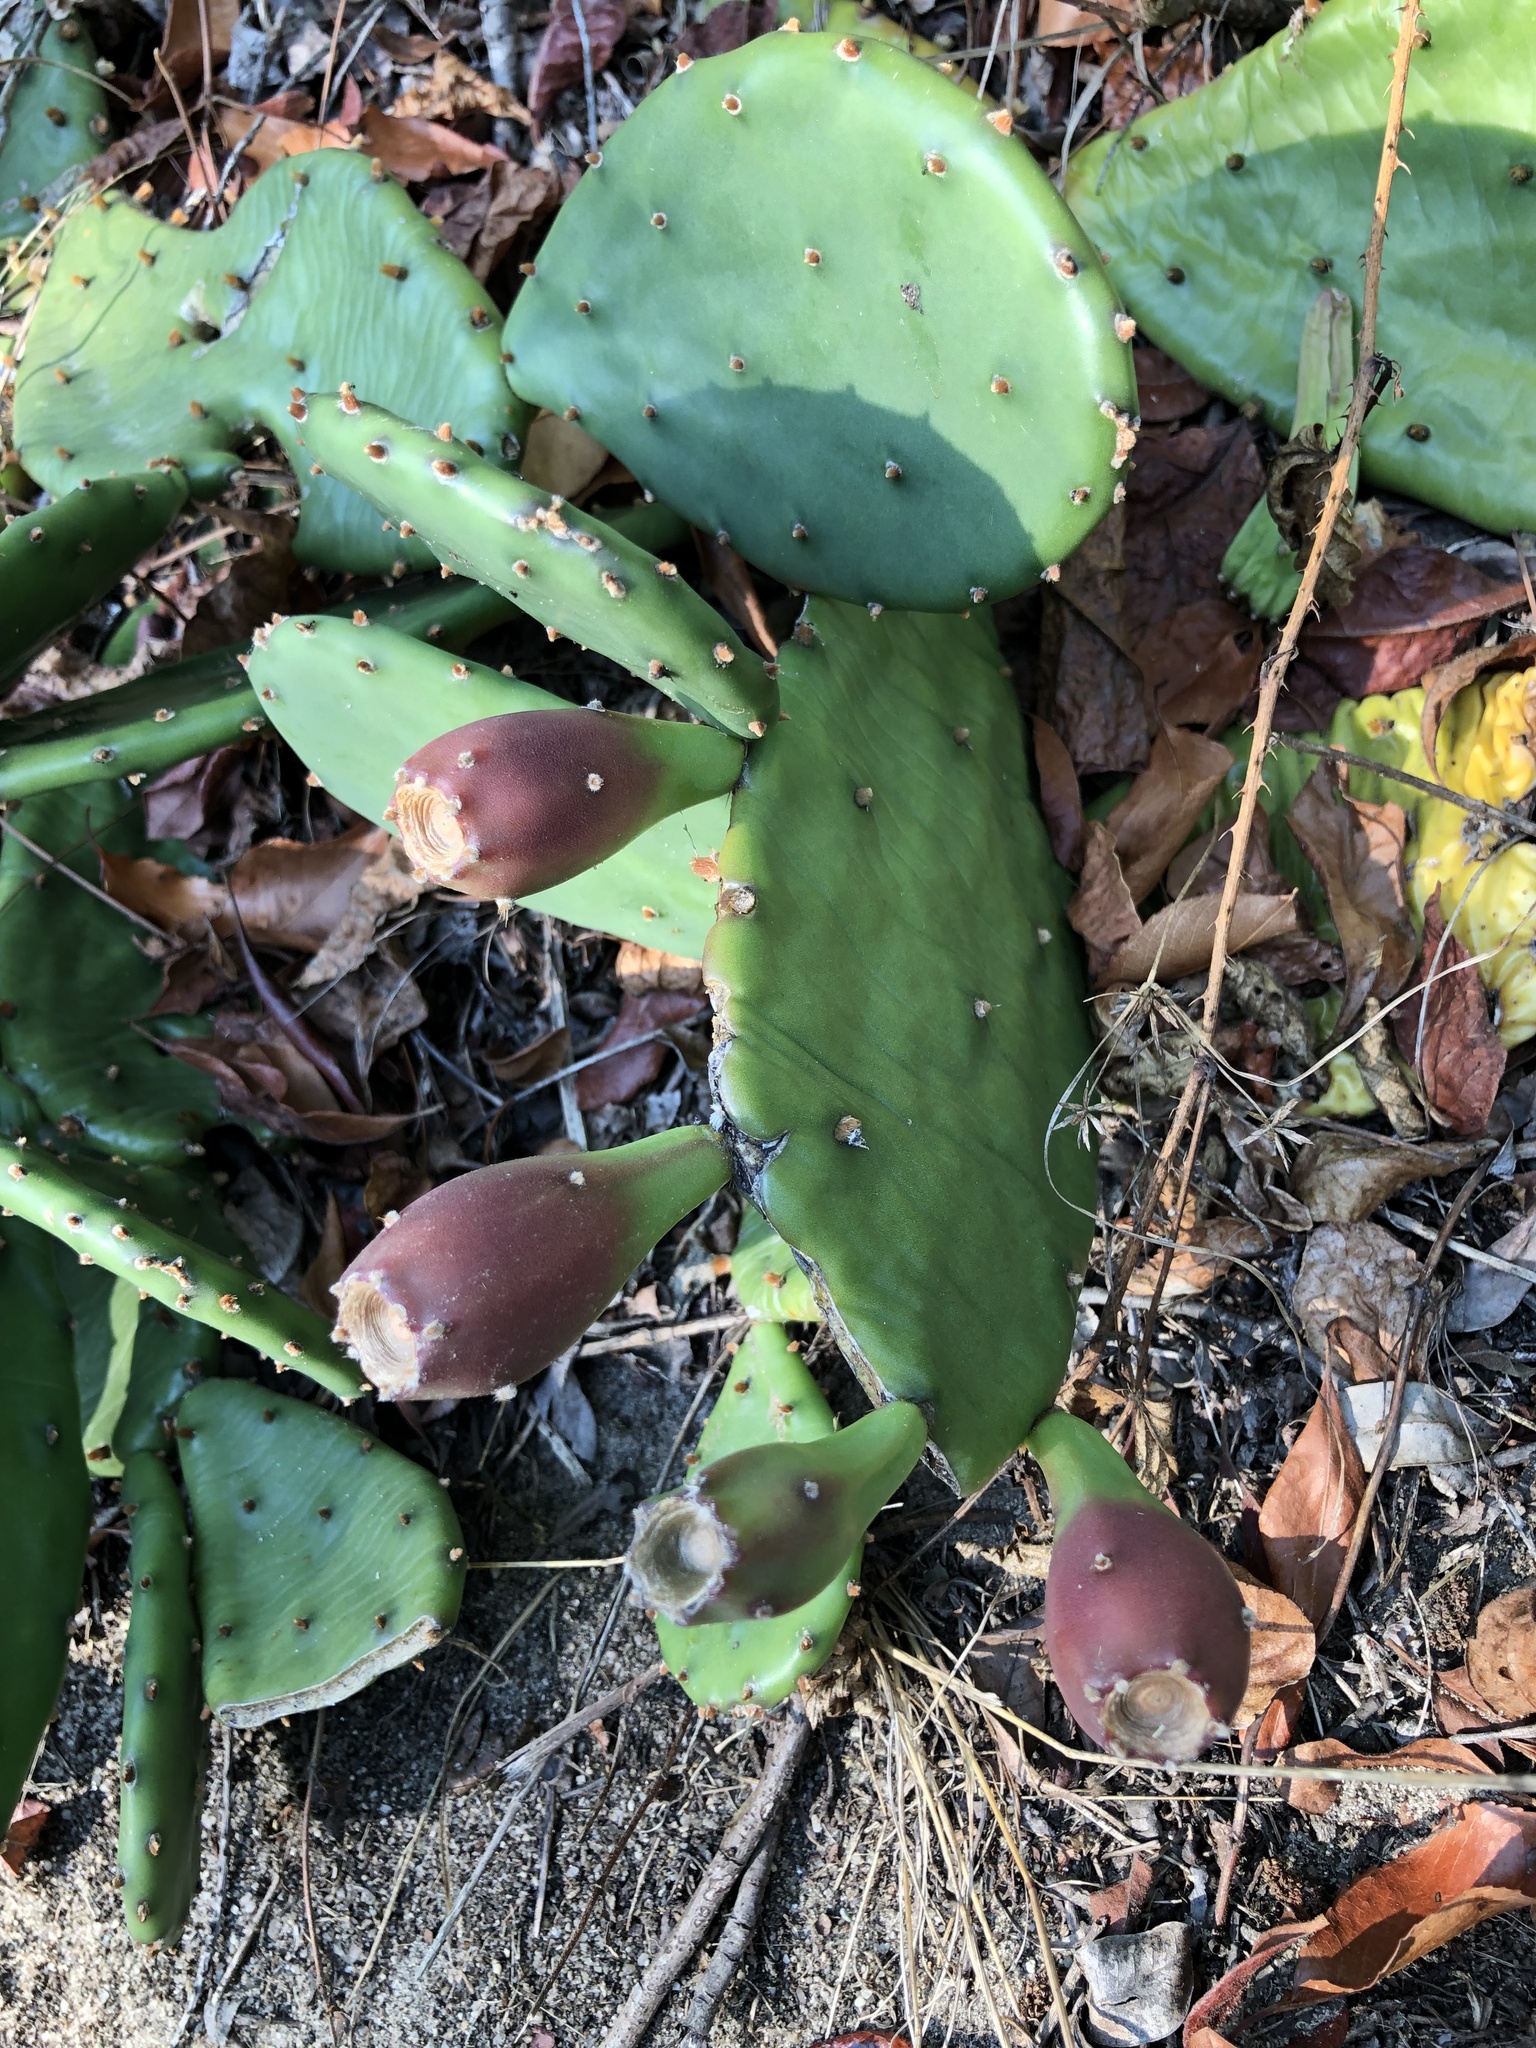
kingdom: Plantae
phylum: Tracheophyta
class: Magnoliopsida
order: Caryophyllales
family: Cactaceae
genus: Opuntia
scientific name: Opuntia humifusa
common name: Eastern prickly-pear
